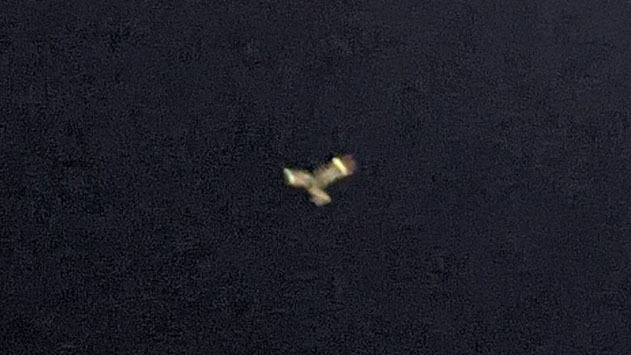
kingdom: Animalia
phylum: Chordata
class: Aves
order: Caprimulgiformes
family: Caprimulgidae
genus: Chordeiles
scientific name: Chordeiles minor
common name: Common nighthawk
